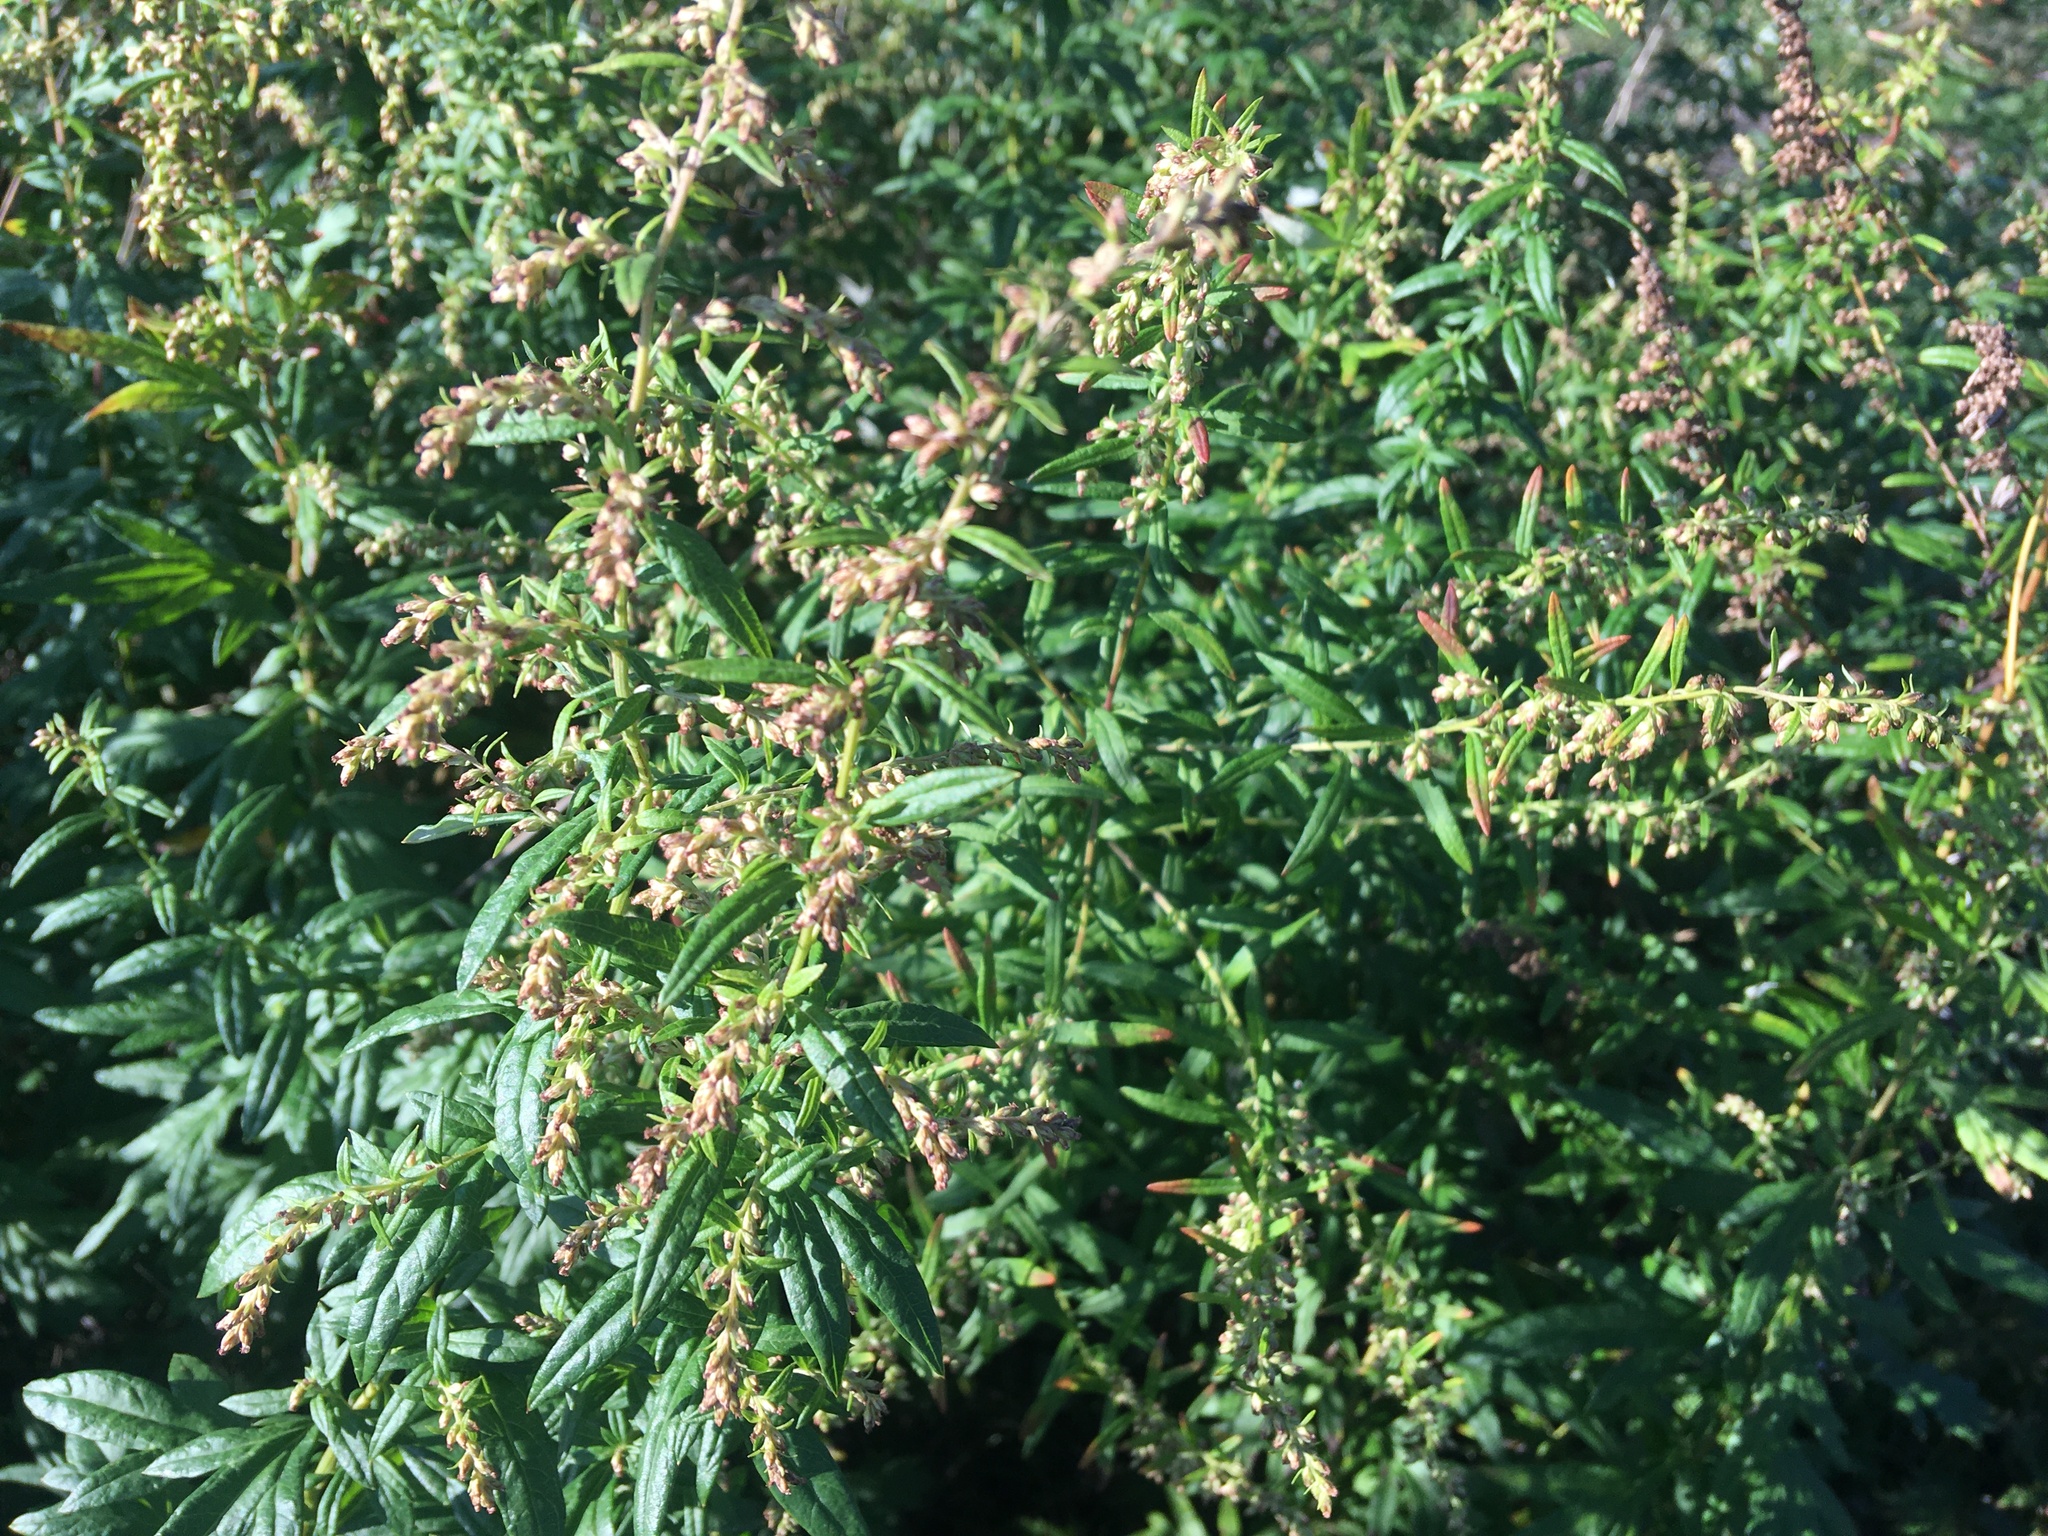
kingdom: Plantae
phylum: Tracheophyta
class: Magnoliopsida
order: Asterales
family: Asteraceae
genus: Artemisia
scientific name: Artemisia vulgaris
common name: Mugwort
